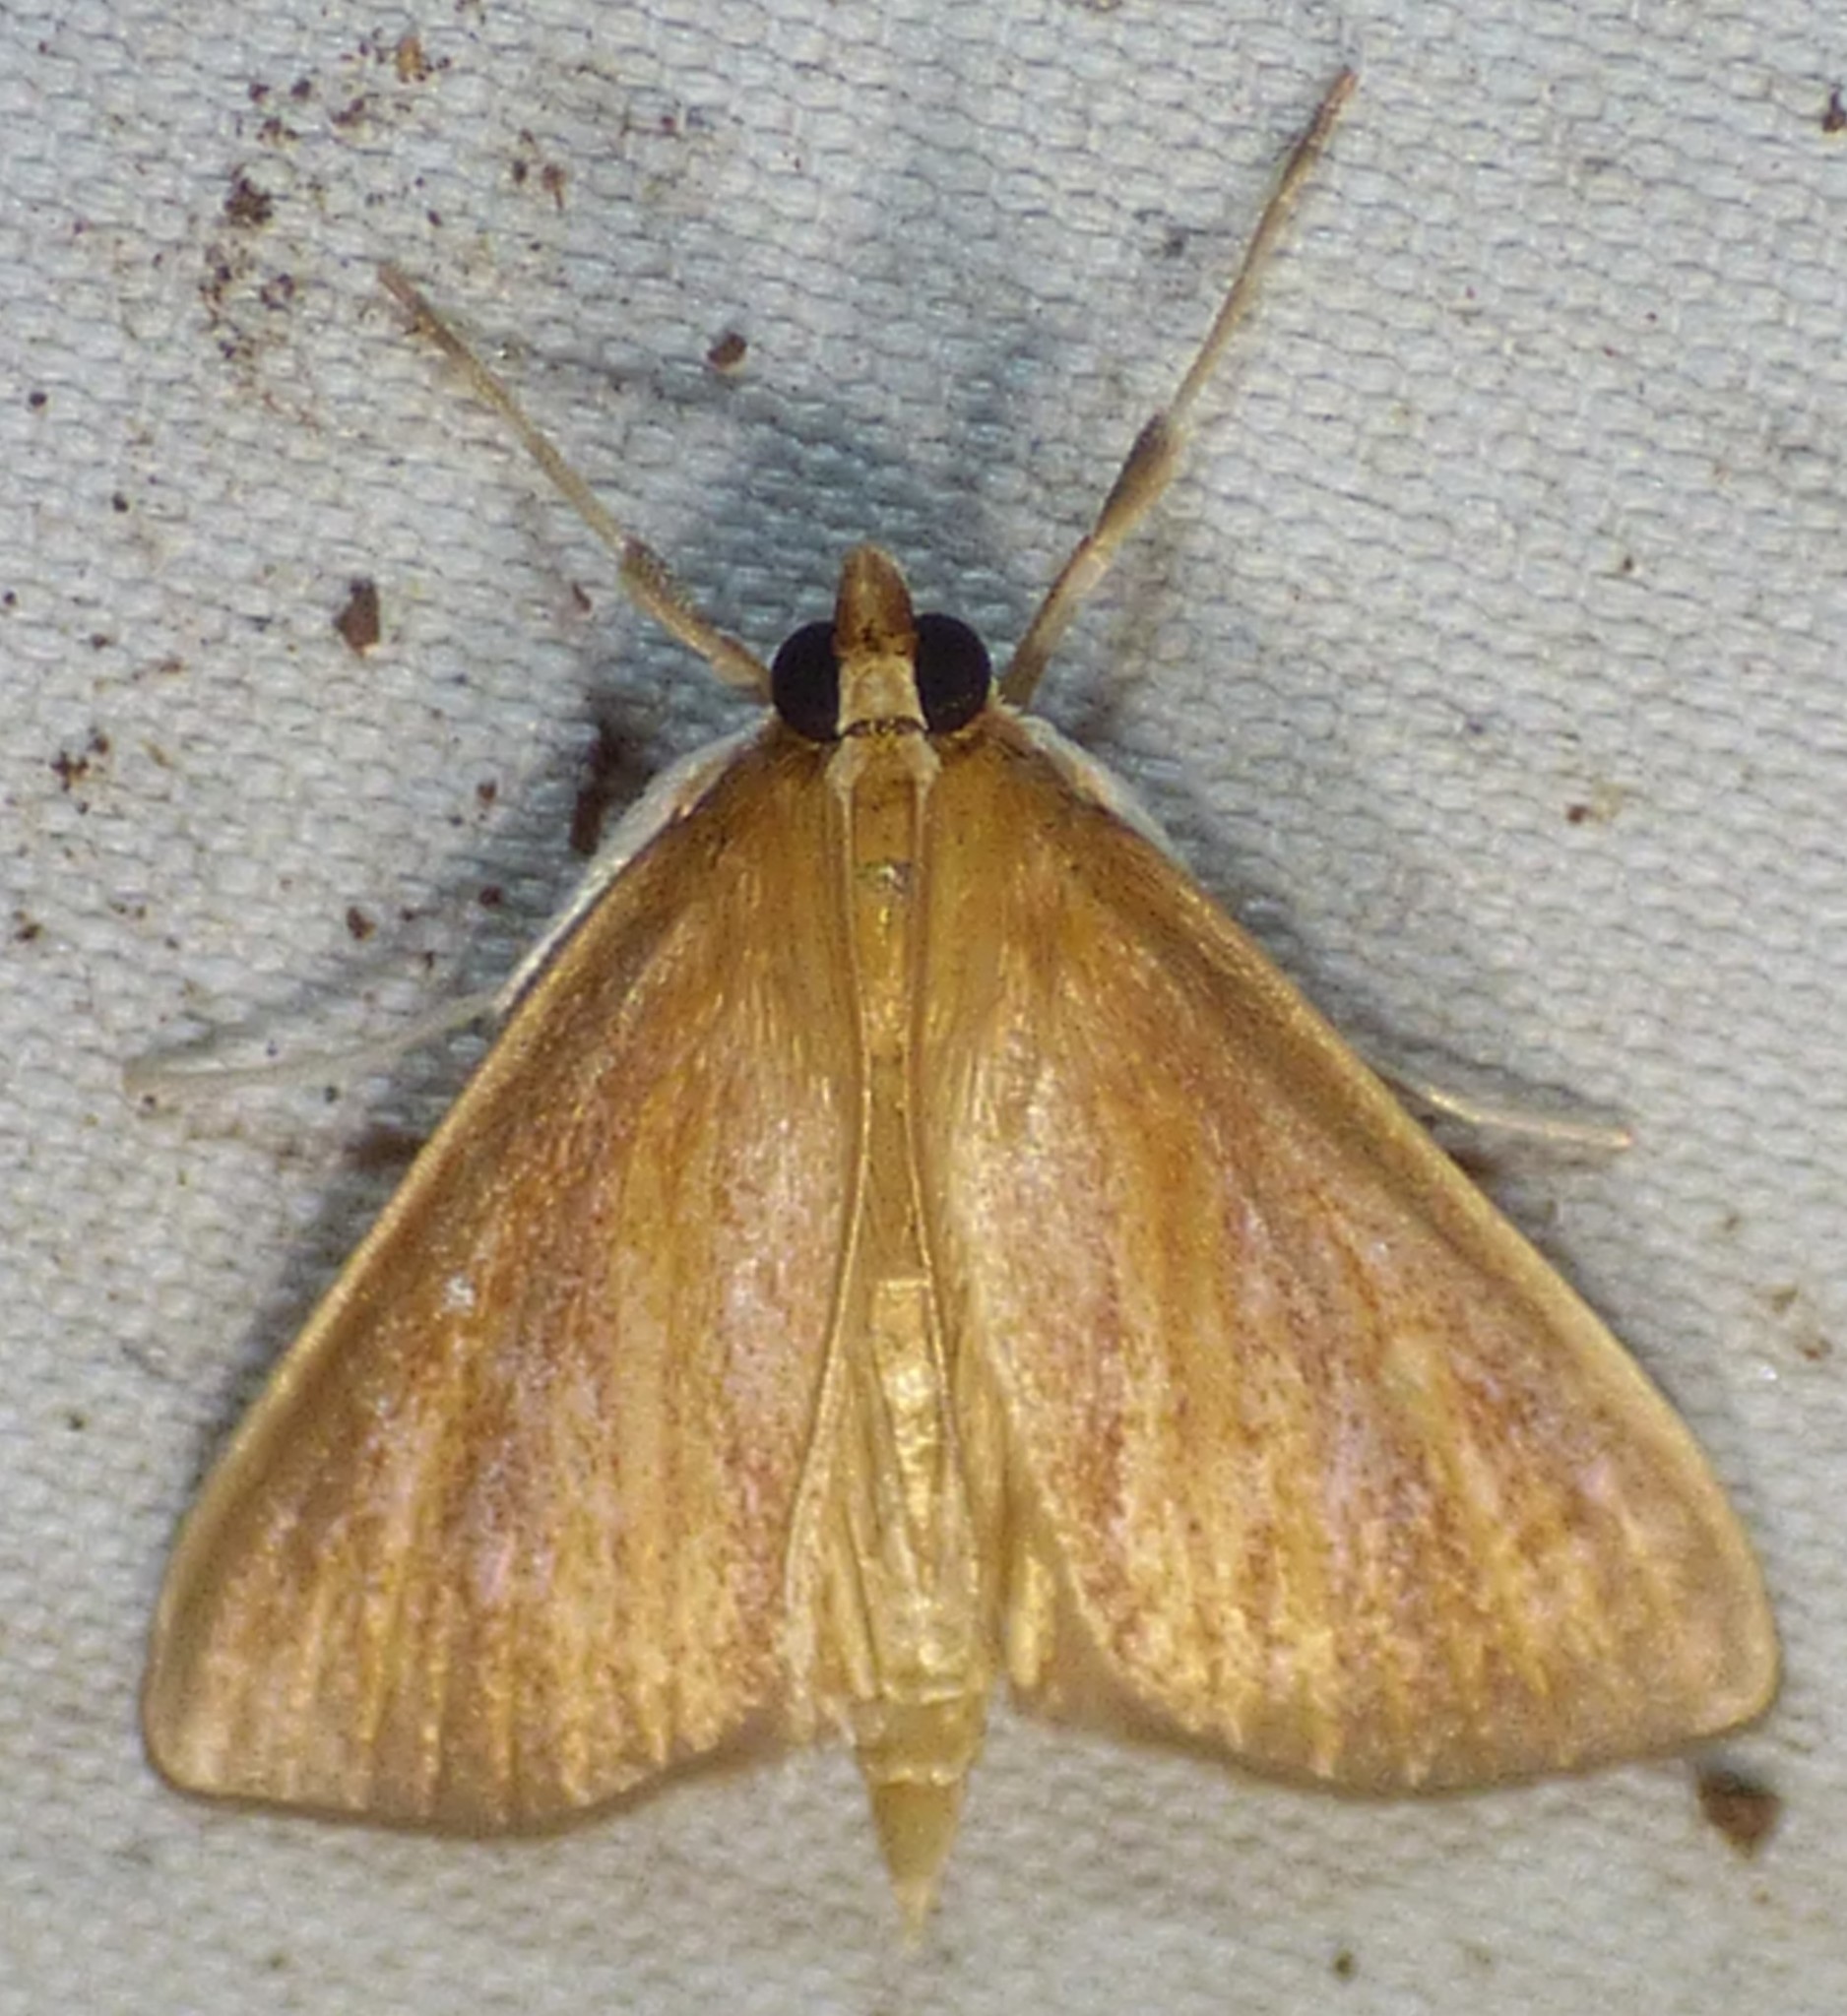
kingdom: Animalia
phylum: Arthropoda
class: Insecta
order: Lepidoptera
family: Crambidae
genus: Nascia
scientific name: Nascia acutellus
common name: Streaked orange moth
